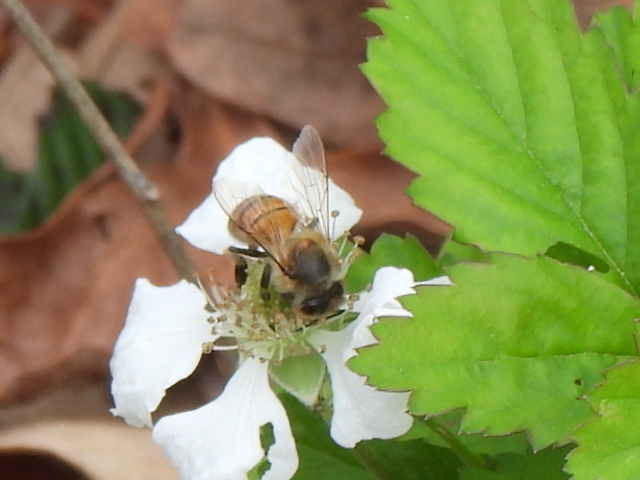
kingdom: Animalia
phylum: Arthropoda
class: Insecta
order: Hymenoptera
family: Apidae
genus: Apis
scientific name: Apis mellifera
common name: Honey bee
